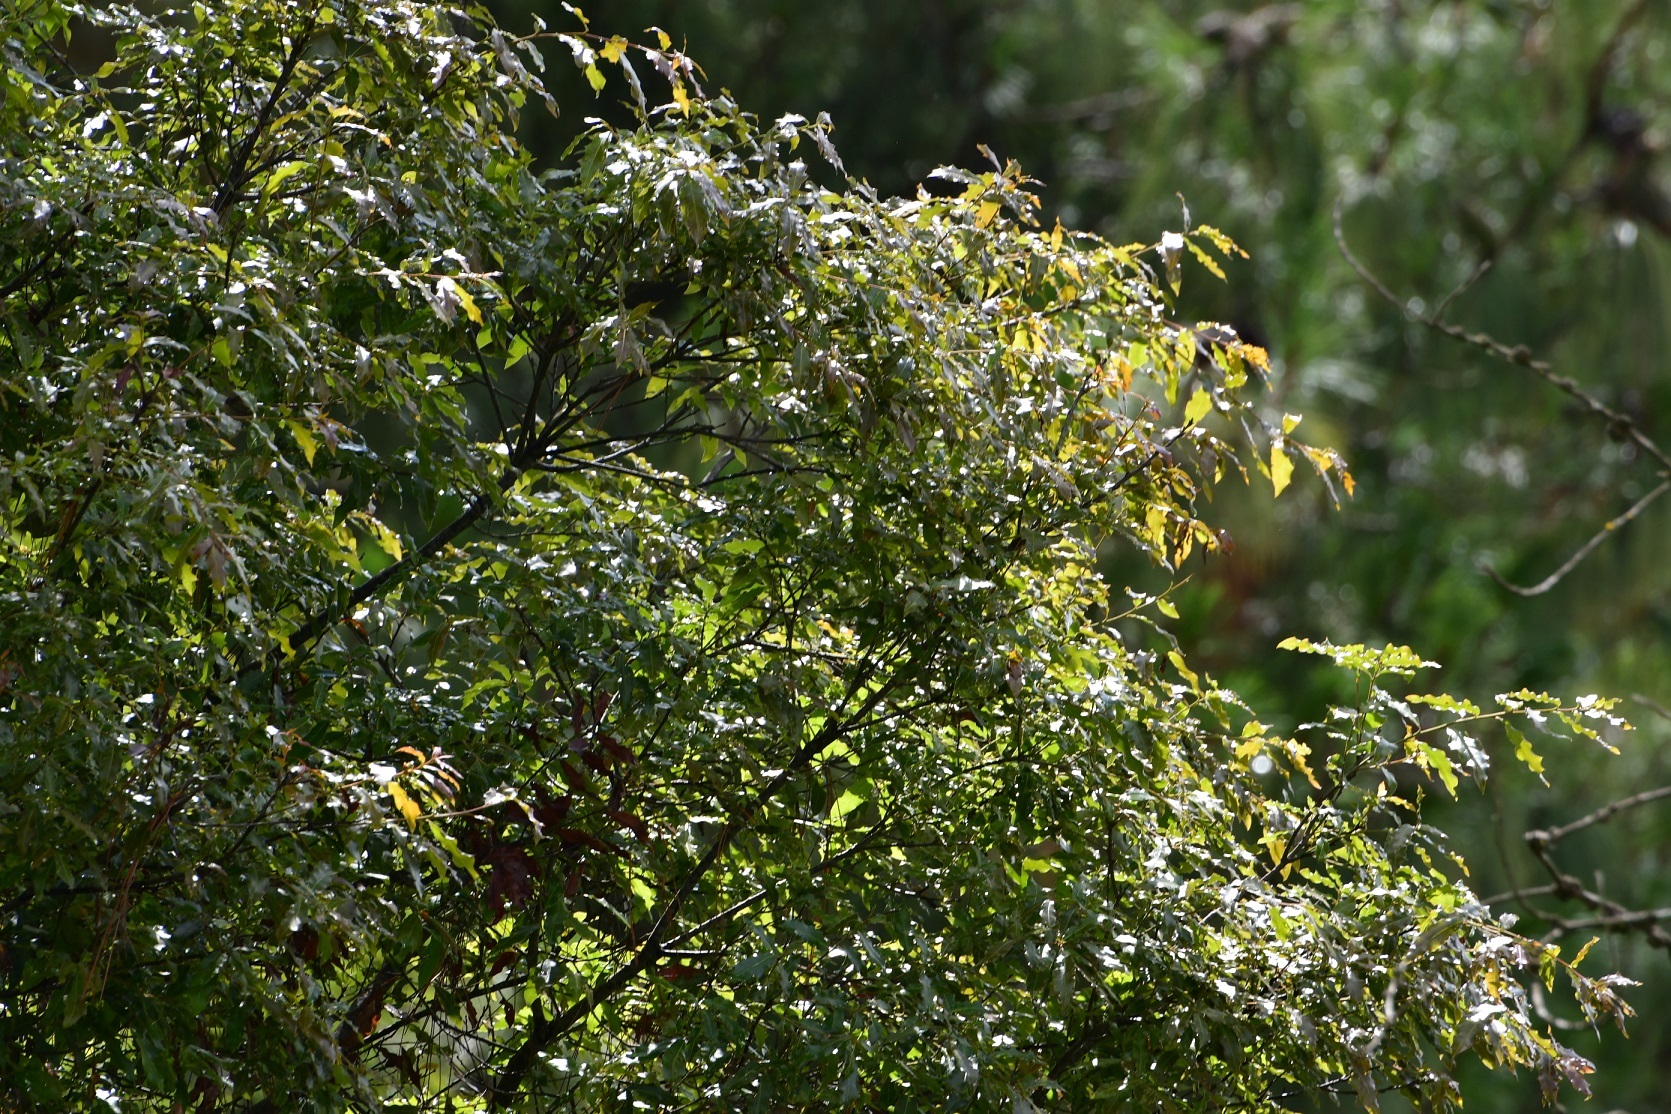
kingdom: Plantae
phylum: Tracheophyta
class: Magnoliopsida
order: Fagales
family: Fagaceae
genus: Quercus
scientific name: Quercus laurina
